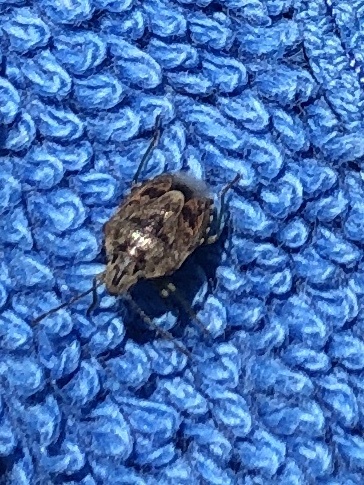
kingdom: Animalia
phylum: Arthropoda
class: Insecta
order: Hemiptera
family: Pentatomidae
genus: Holcogaster
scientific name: Holcogaster fibulata
